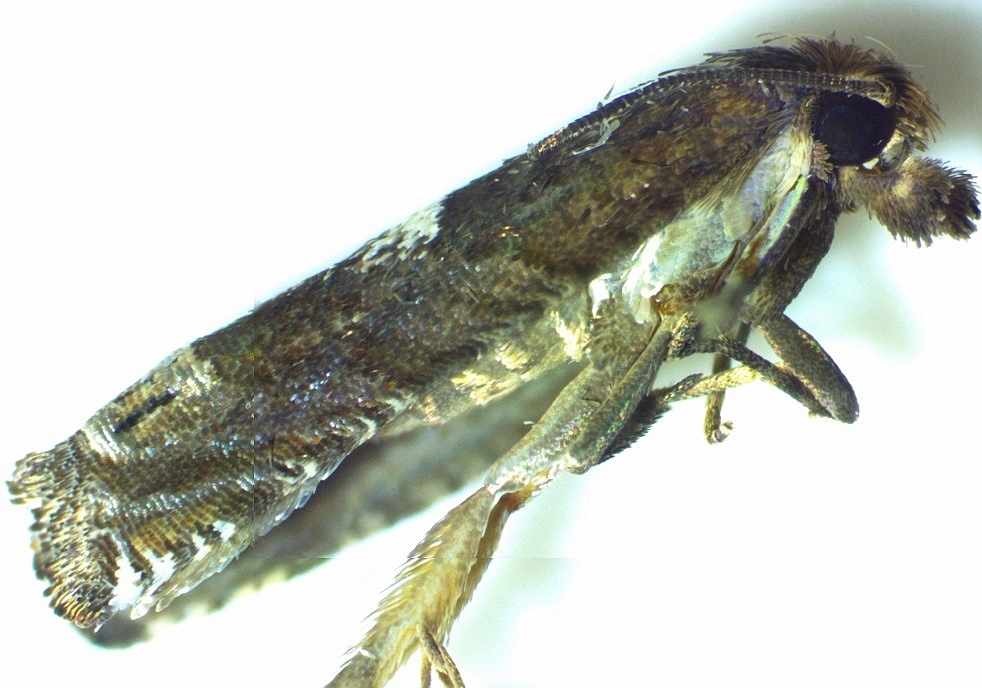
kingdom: Animalia
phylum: Arthropoda
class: Insecta
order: Lepidoptera
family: Tortricidae
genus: Eucosma
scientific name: Eucosma parmatana
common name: Aster eucosma moth
